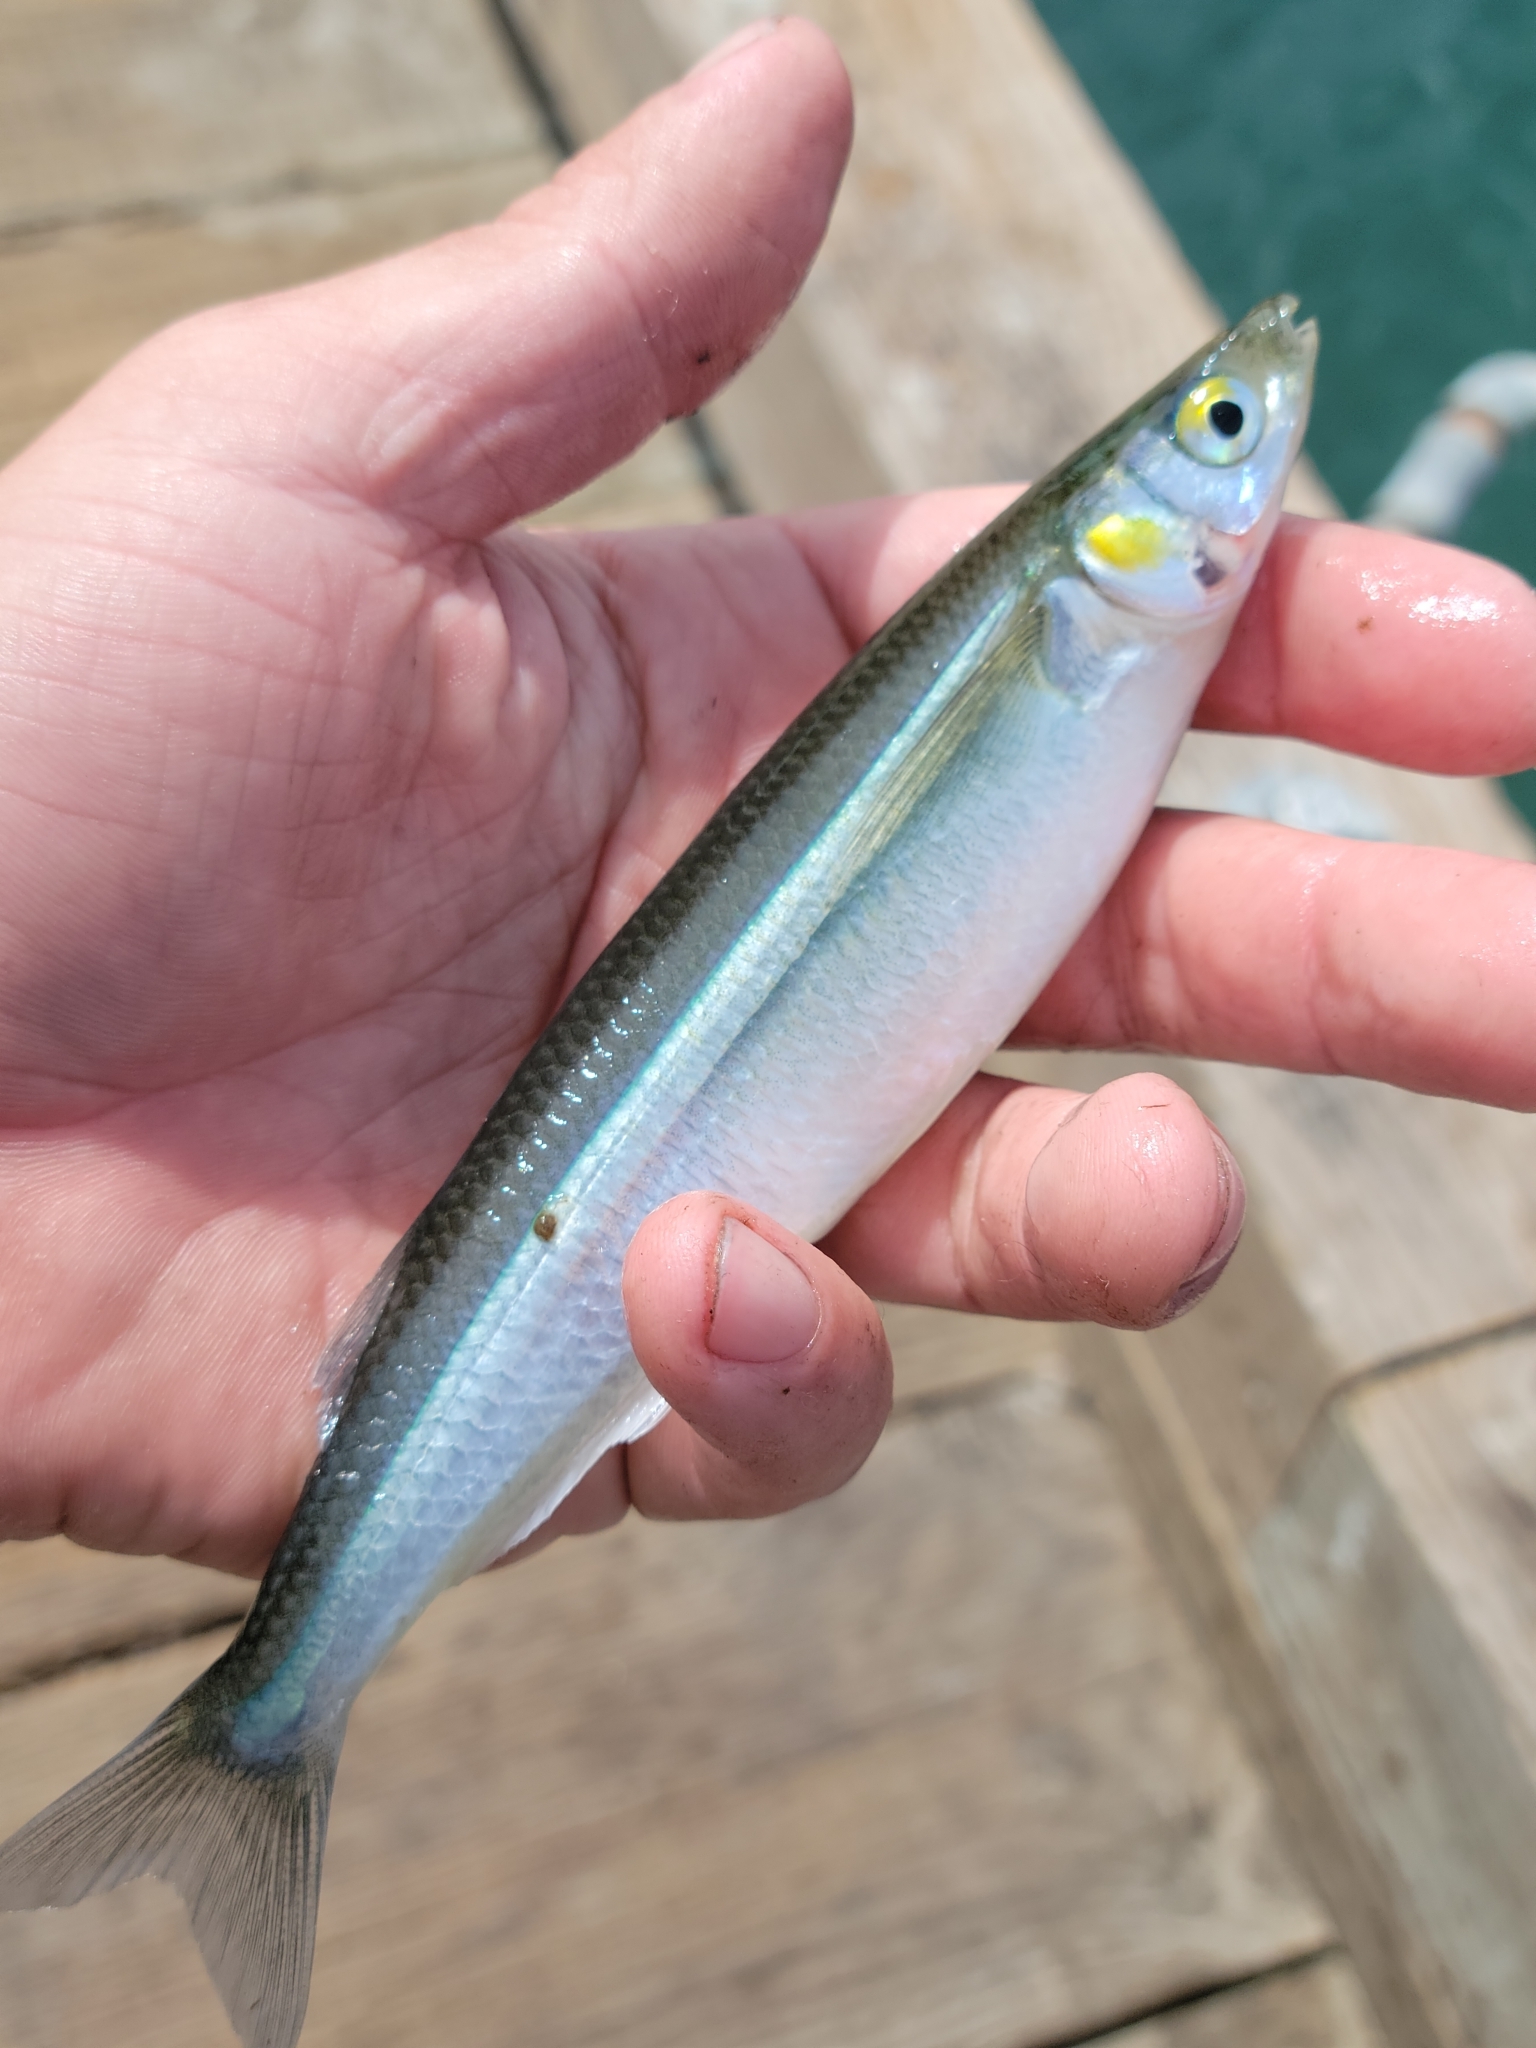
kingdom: Animalia
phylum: Chordata
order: Atheriniformes
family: Atherinopsidae
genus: Atherinops
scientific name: Atherinops affinis
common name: Topsmelt
